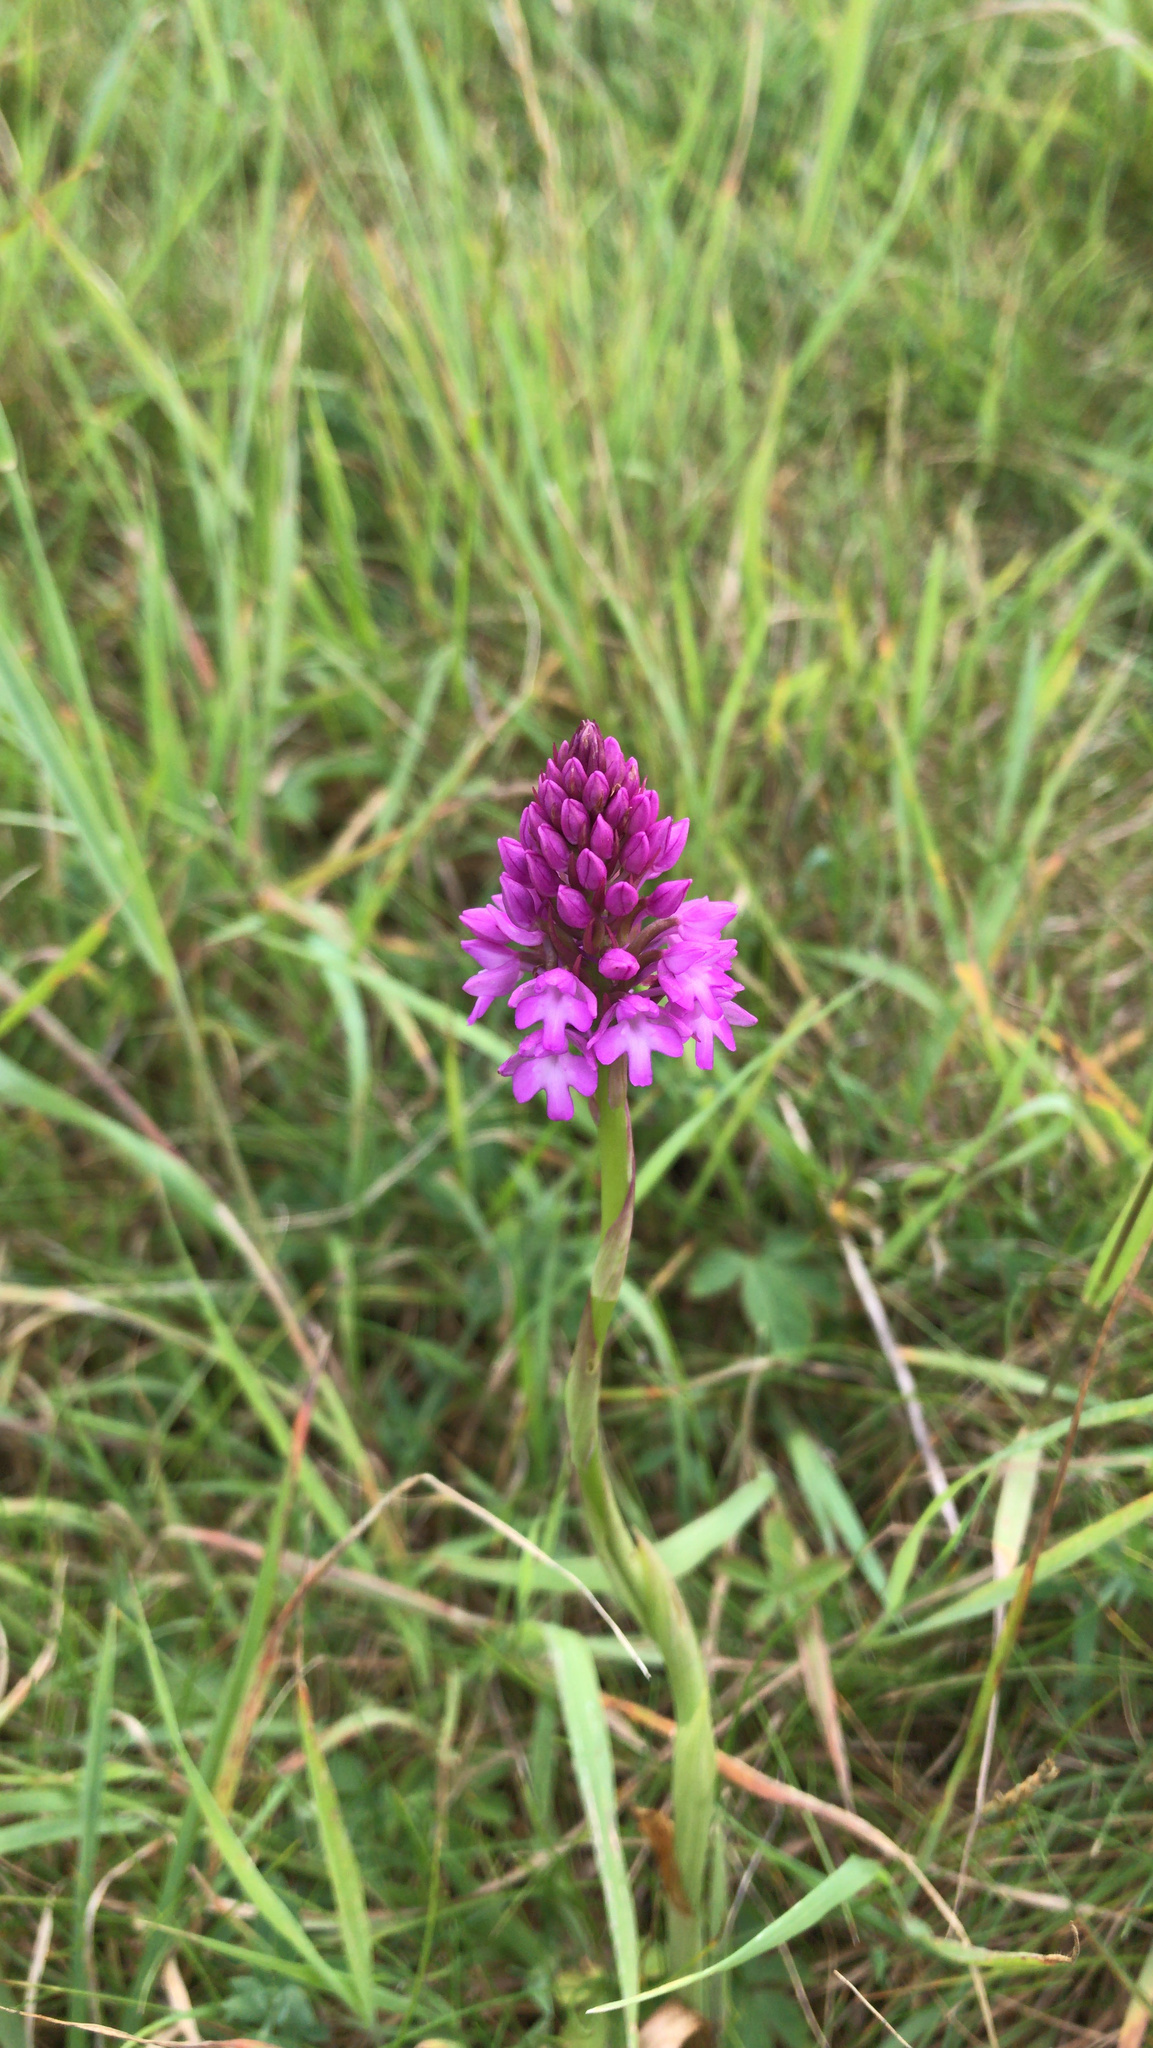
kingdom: Plantae
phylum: Tracheophyta
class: Liliopsida
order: Asparagales
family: Orchidaceae
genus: Anacamptis
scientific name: Anacamptis pyramidalis
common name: Pyramidal orchid
